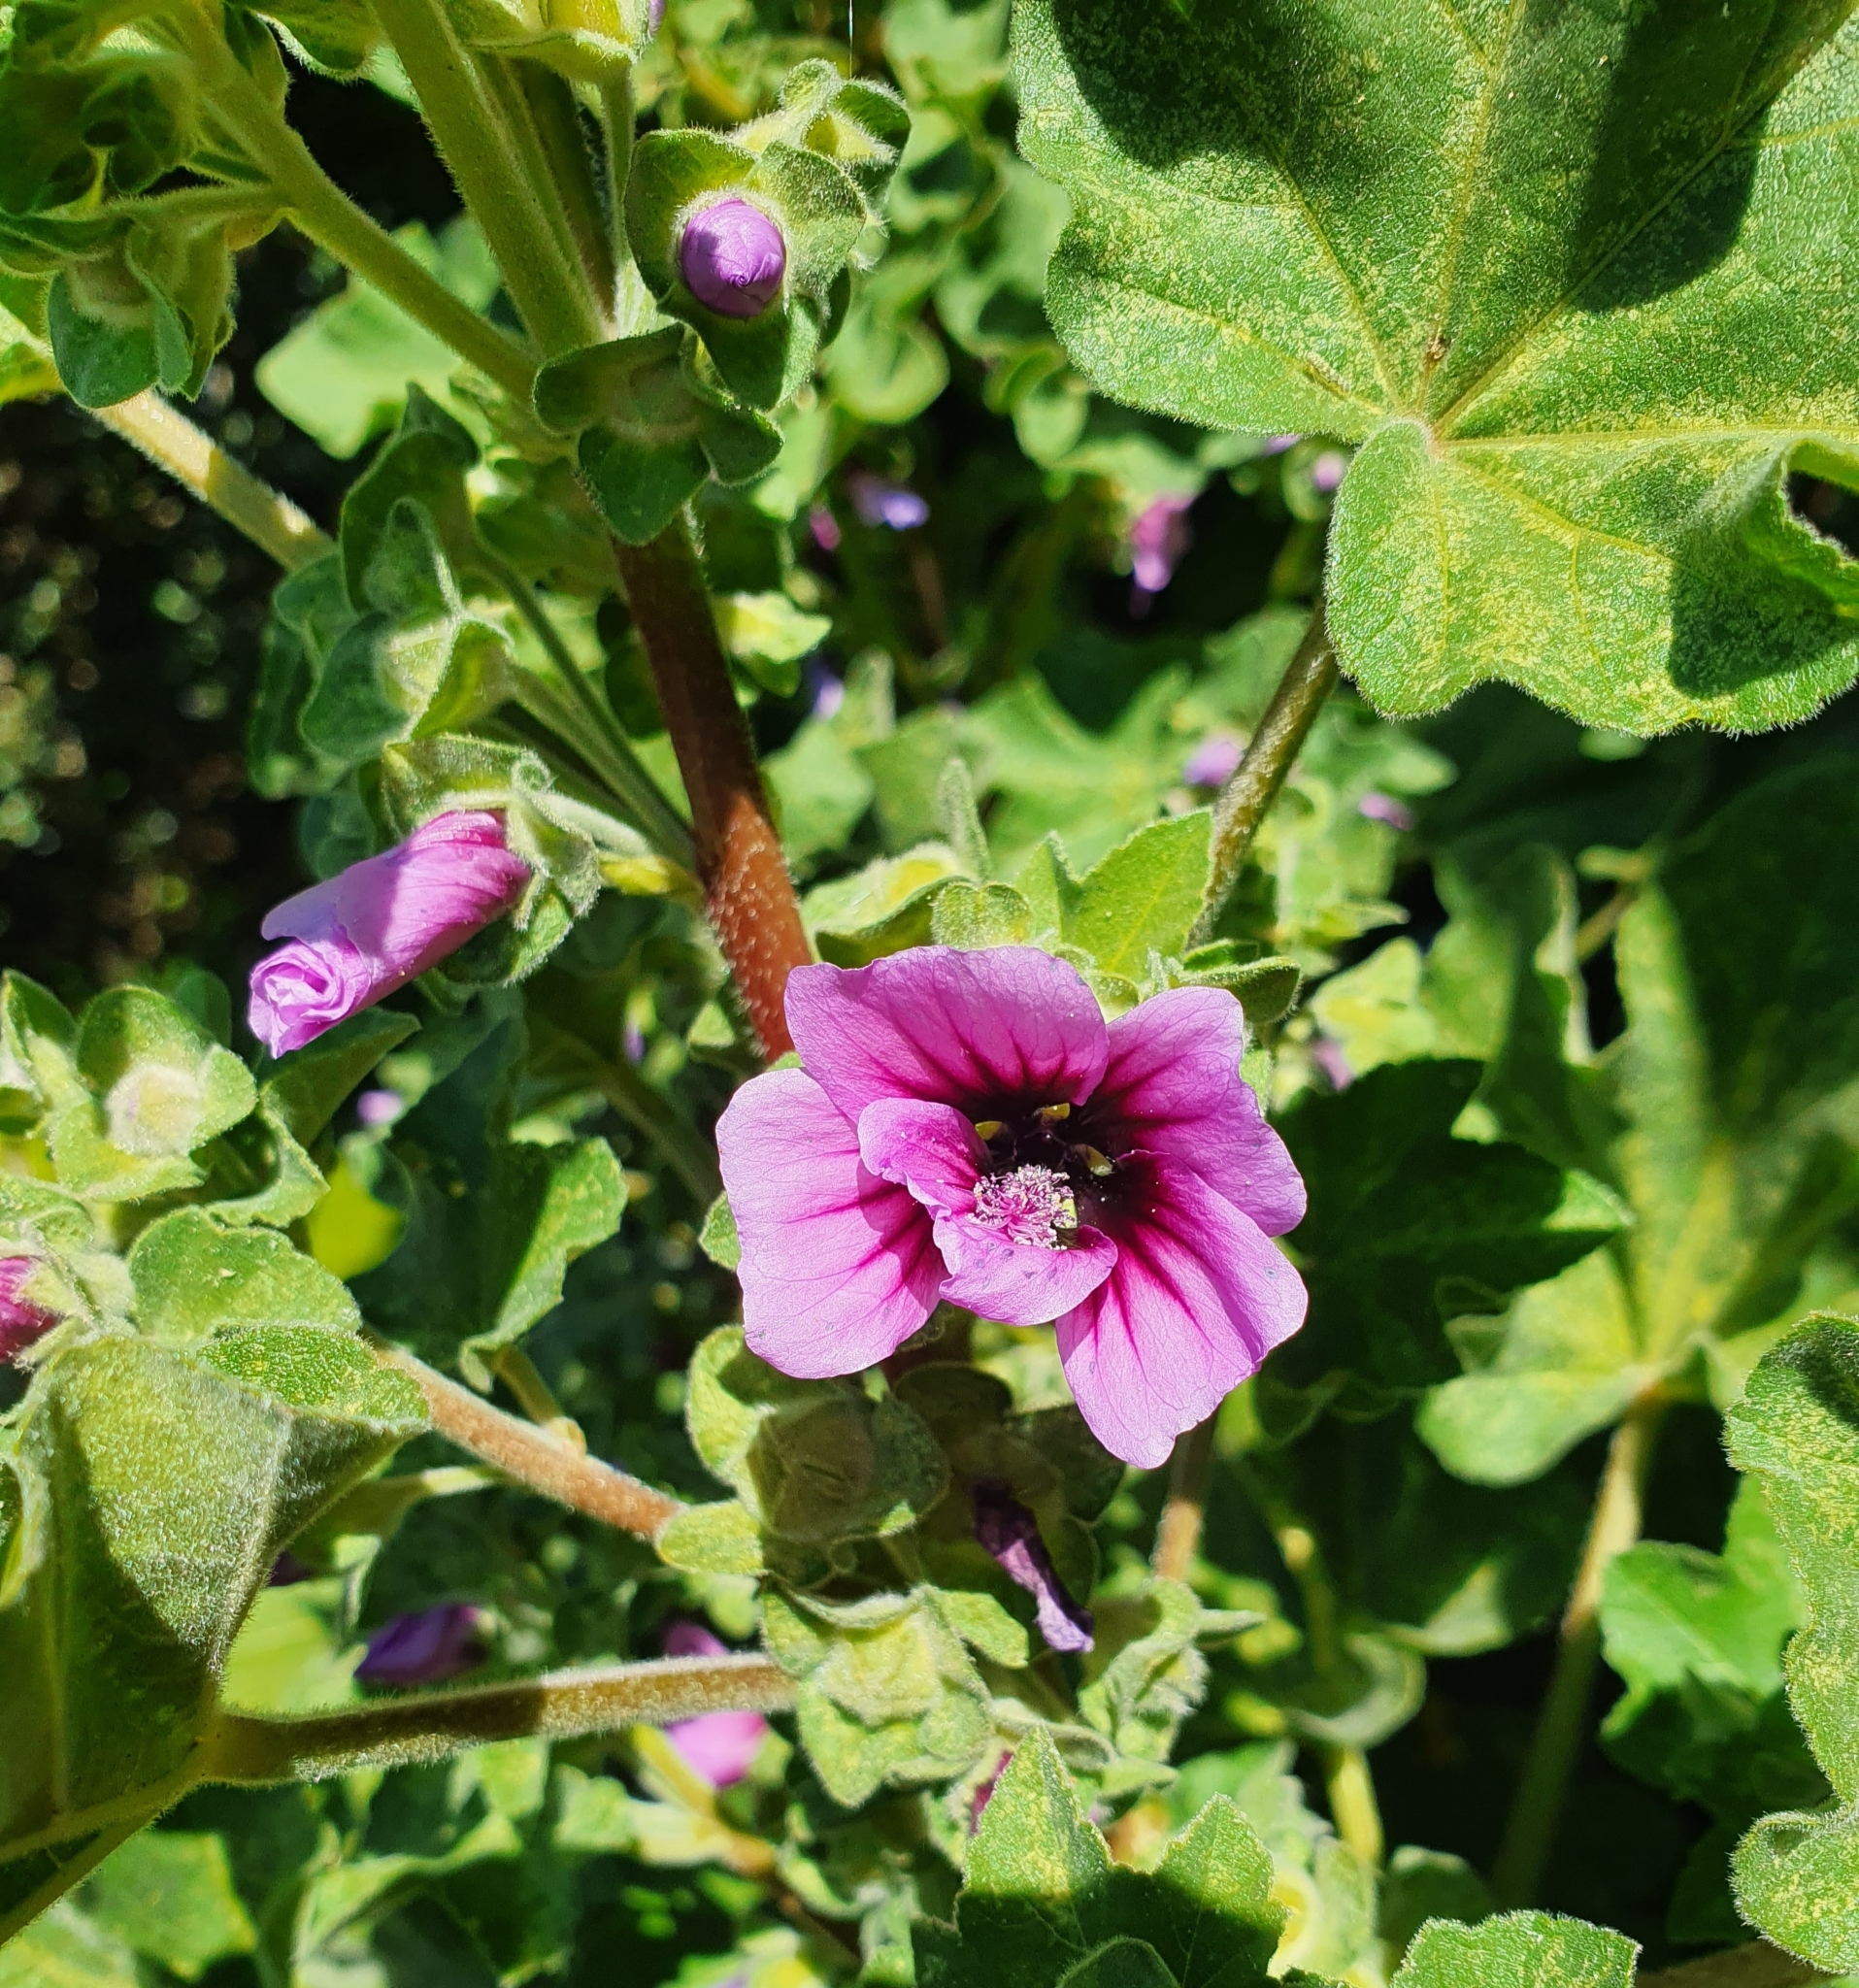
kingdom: Plantae
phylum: Tracheophyta
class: Magnoliopsida
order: Malvales
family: Malvaceae
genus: Malva
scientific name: Malva arborea
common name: Tree mallow
